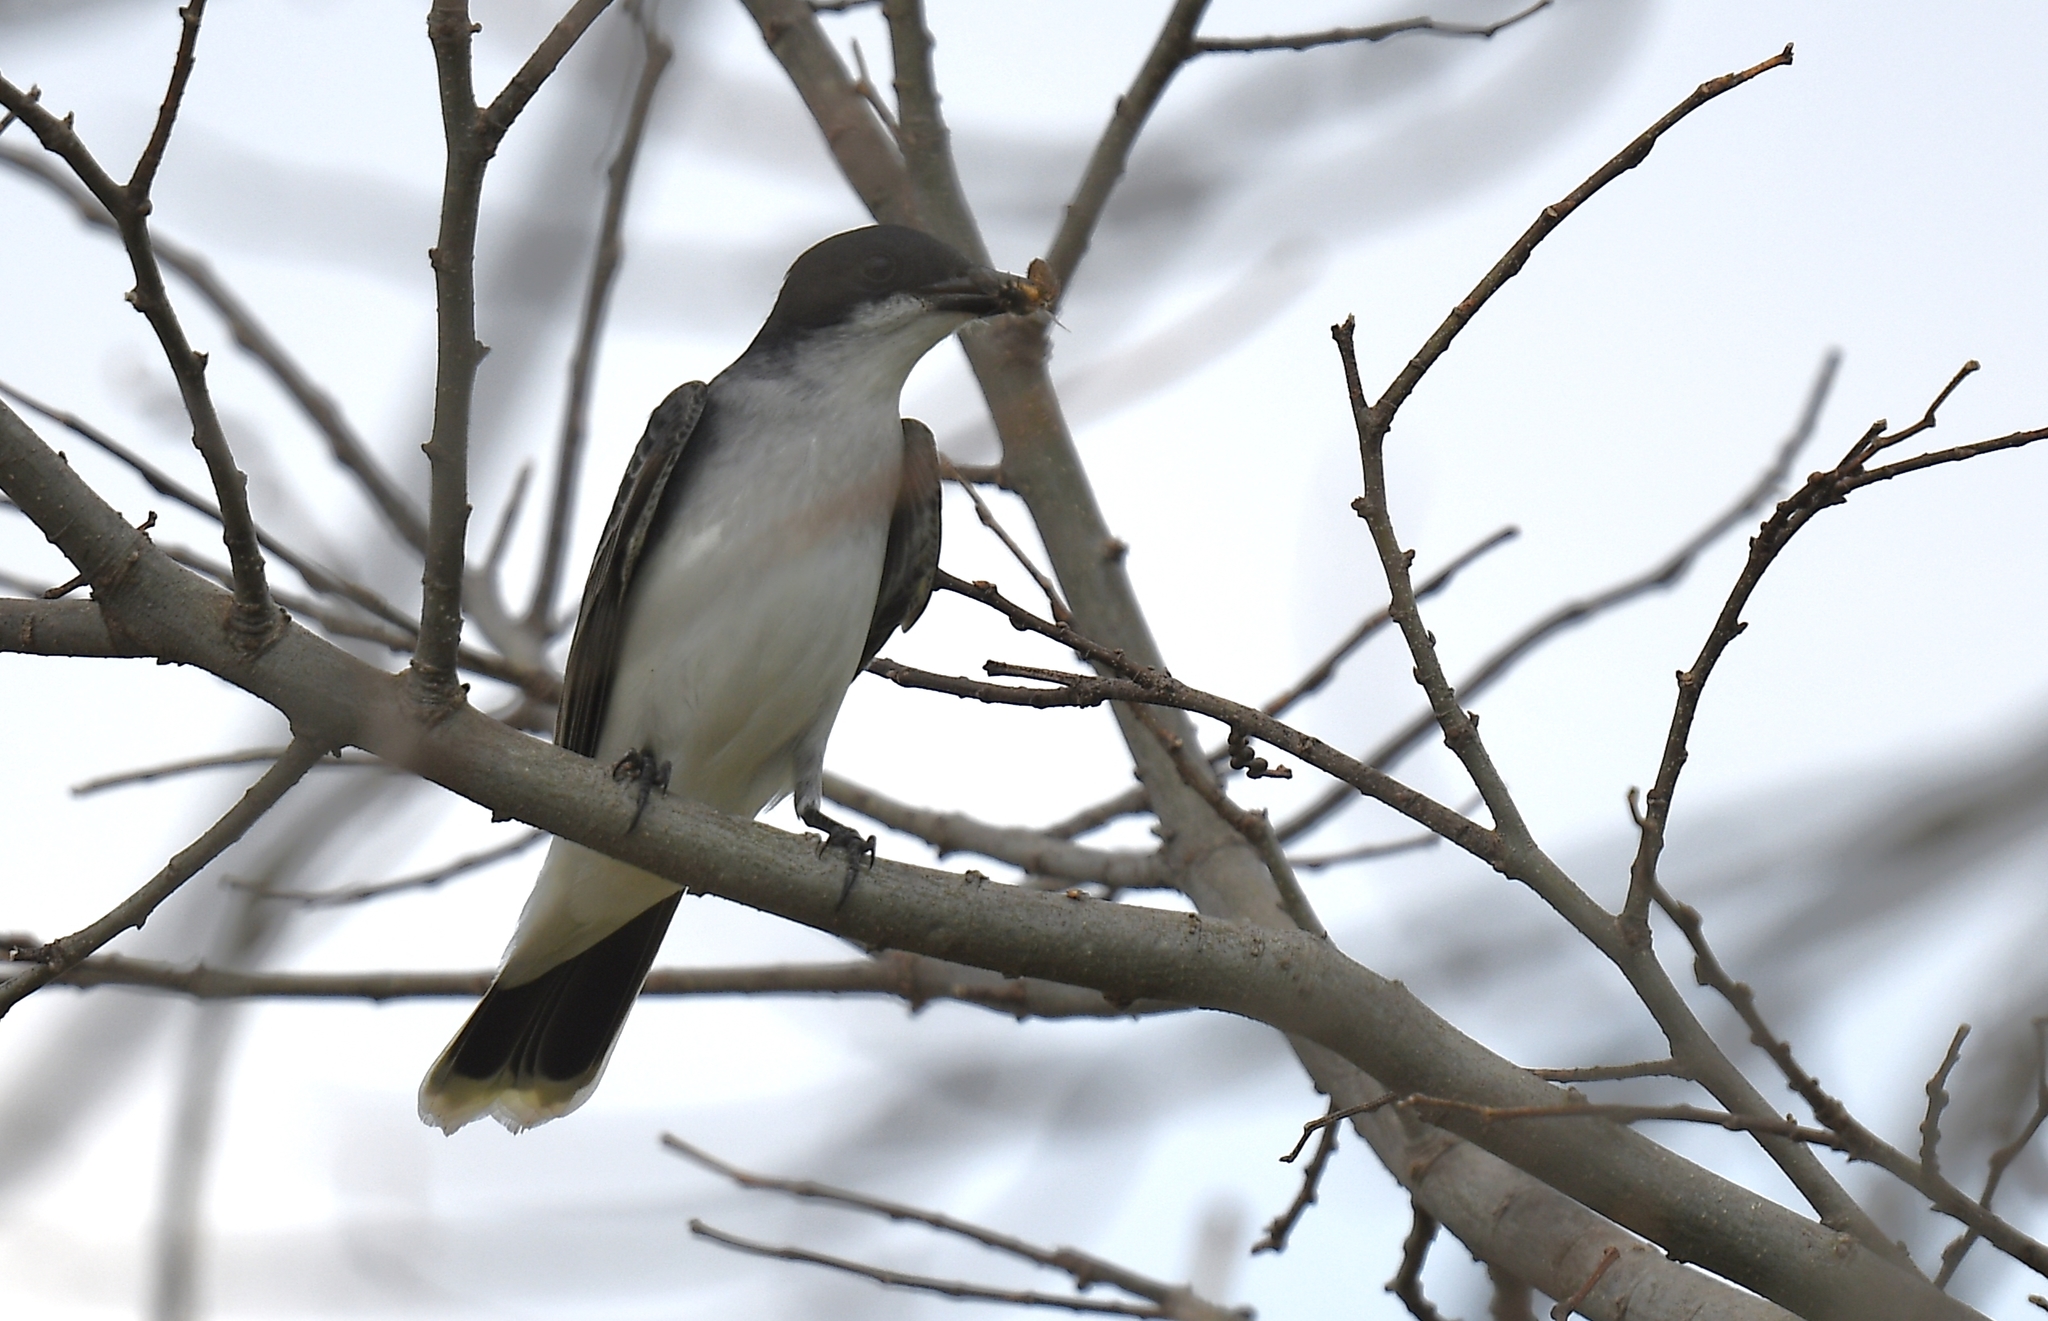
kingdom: Animalia
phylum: Chordata
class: Aves
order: Passeriformes
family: Tyrannidae
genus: Tyrannus
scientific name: Tyrannus tyrannus
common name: Eastern kingbird
